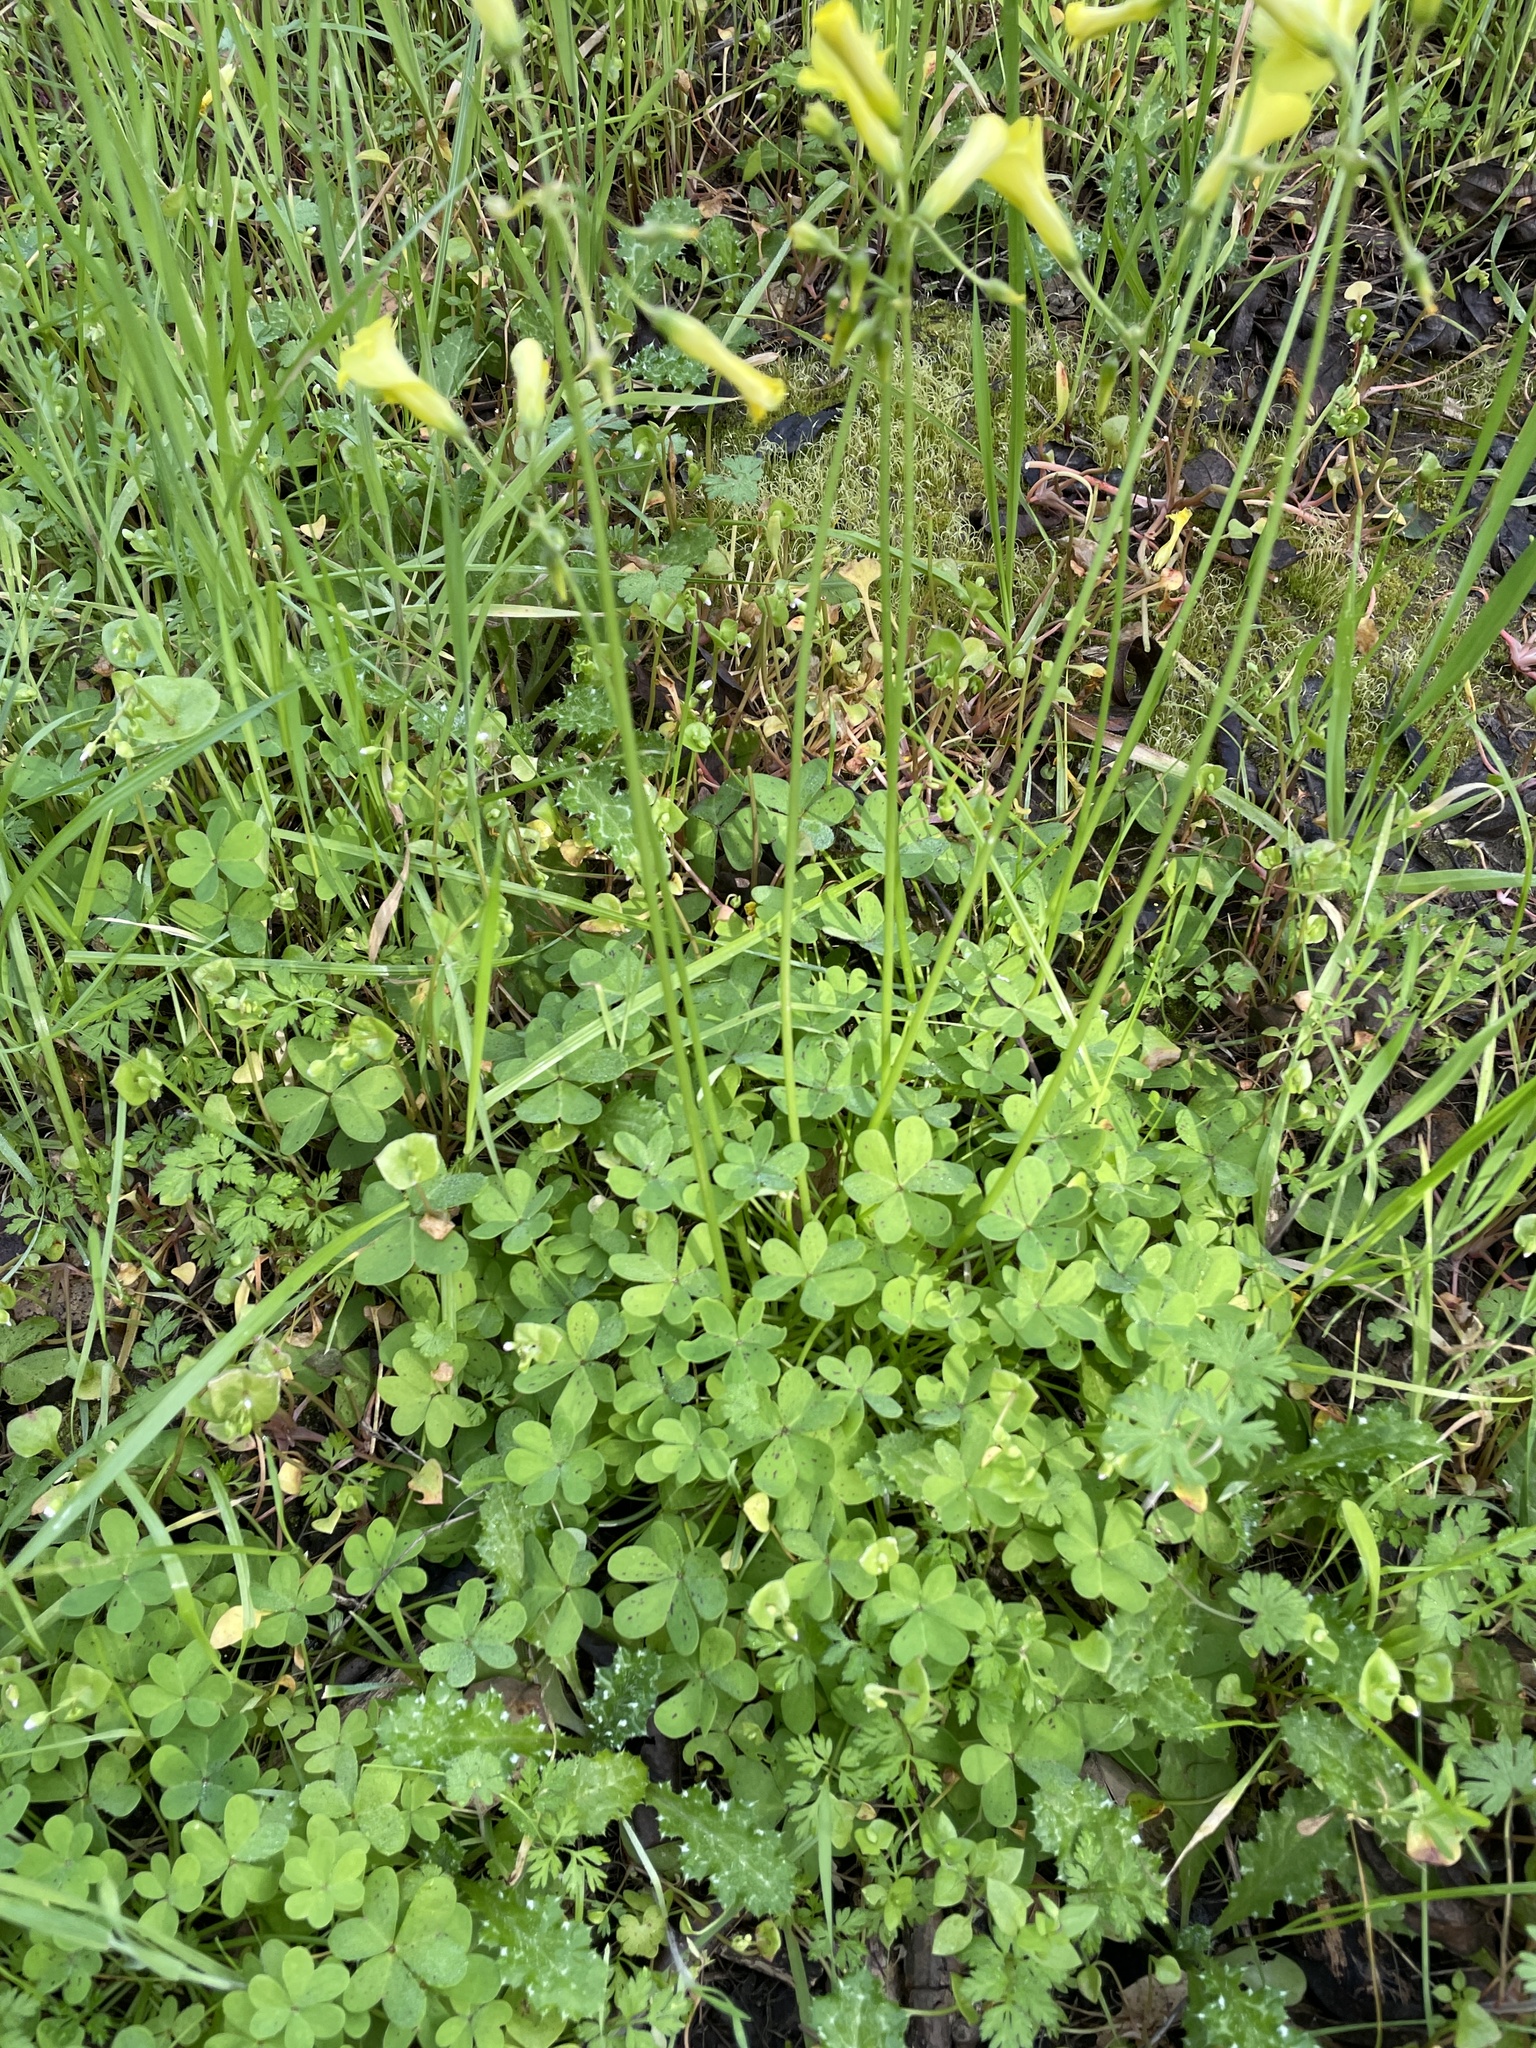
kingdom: Plantae
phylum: Tracheophyta
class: Magnoliopsida
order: Oxalidales
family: Oxalidaceae
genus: Oxalis
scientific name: Oxalis pes-caprae
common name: Bermuda-buttercup
